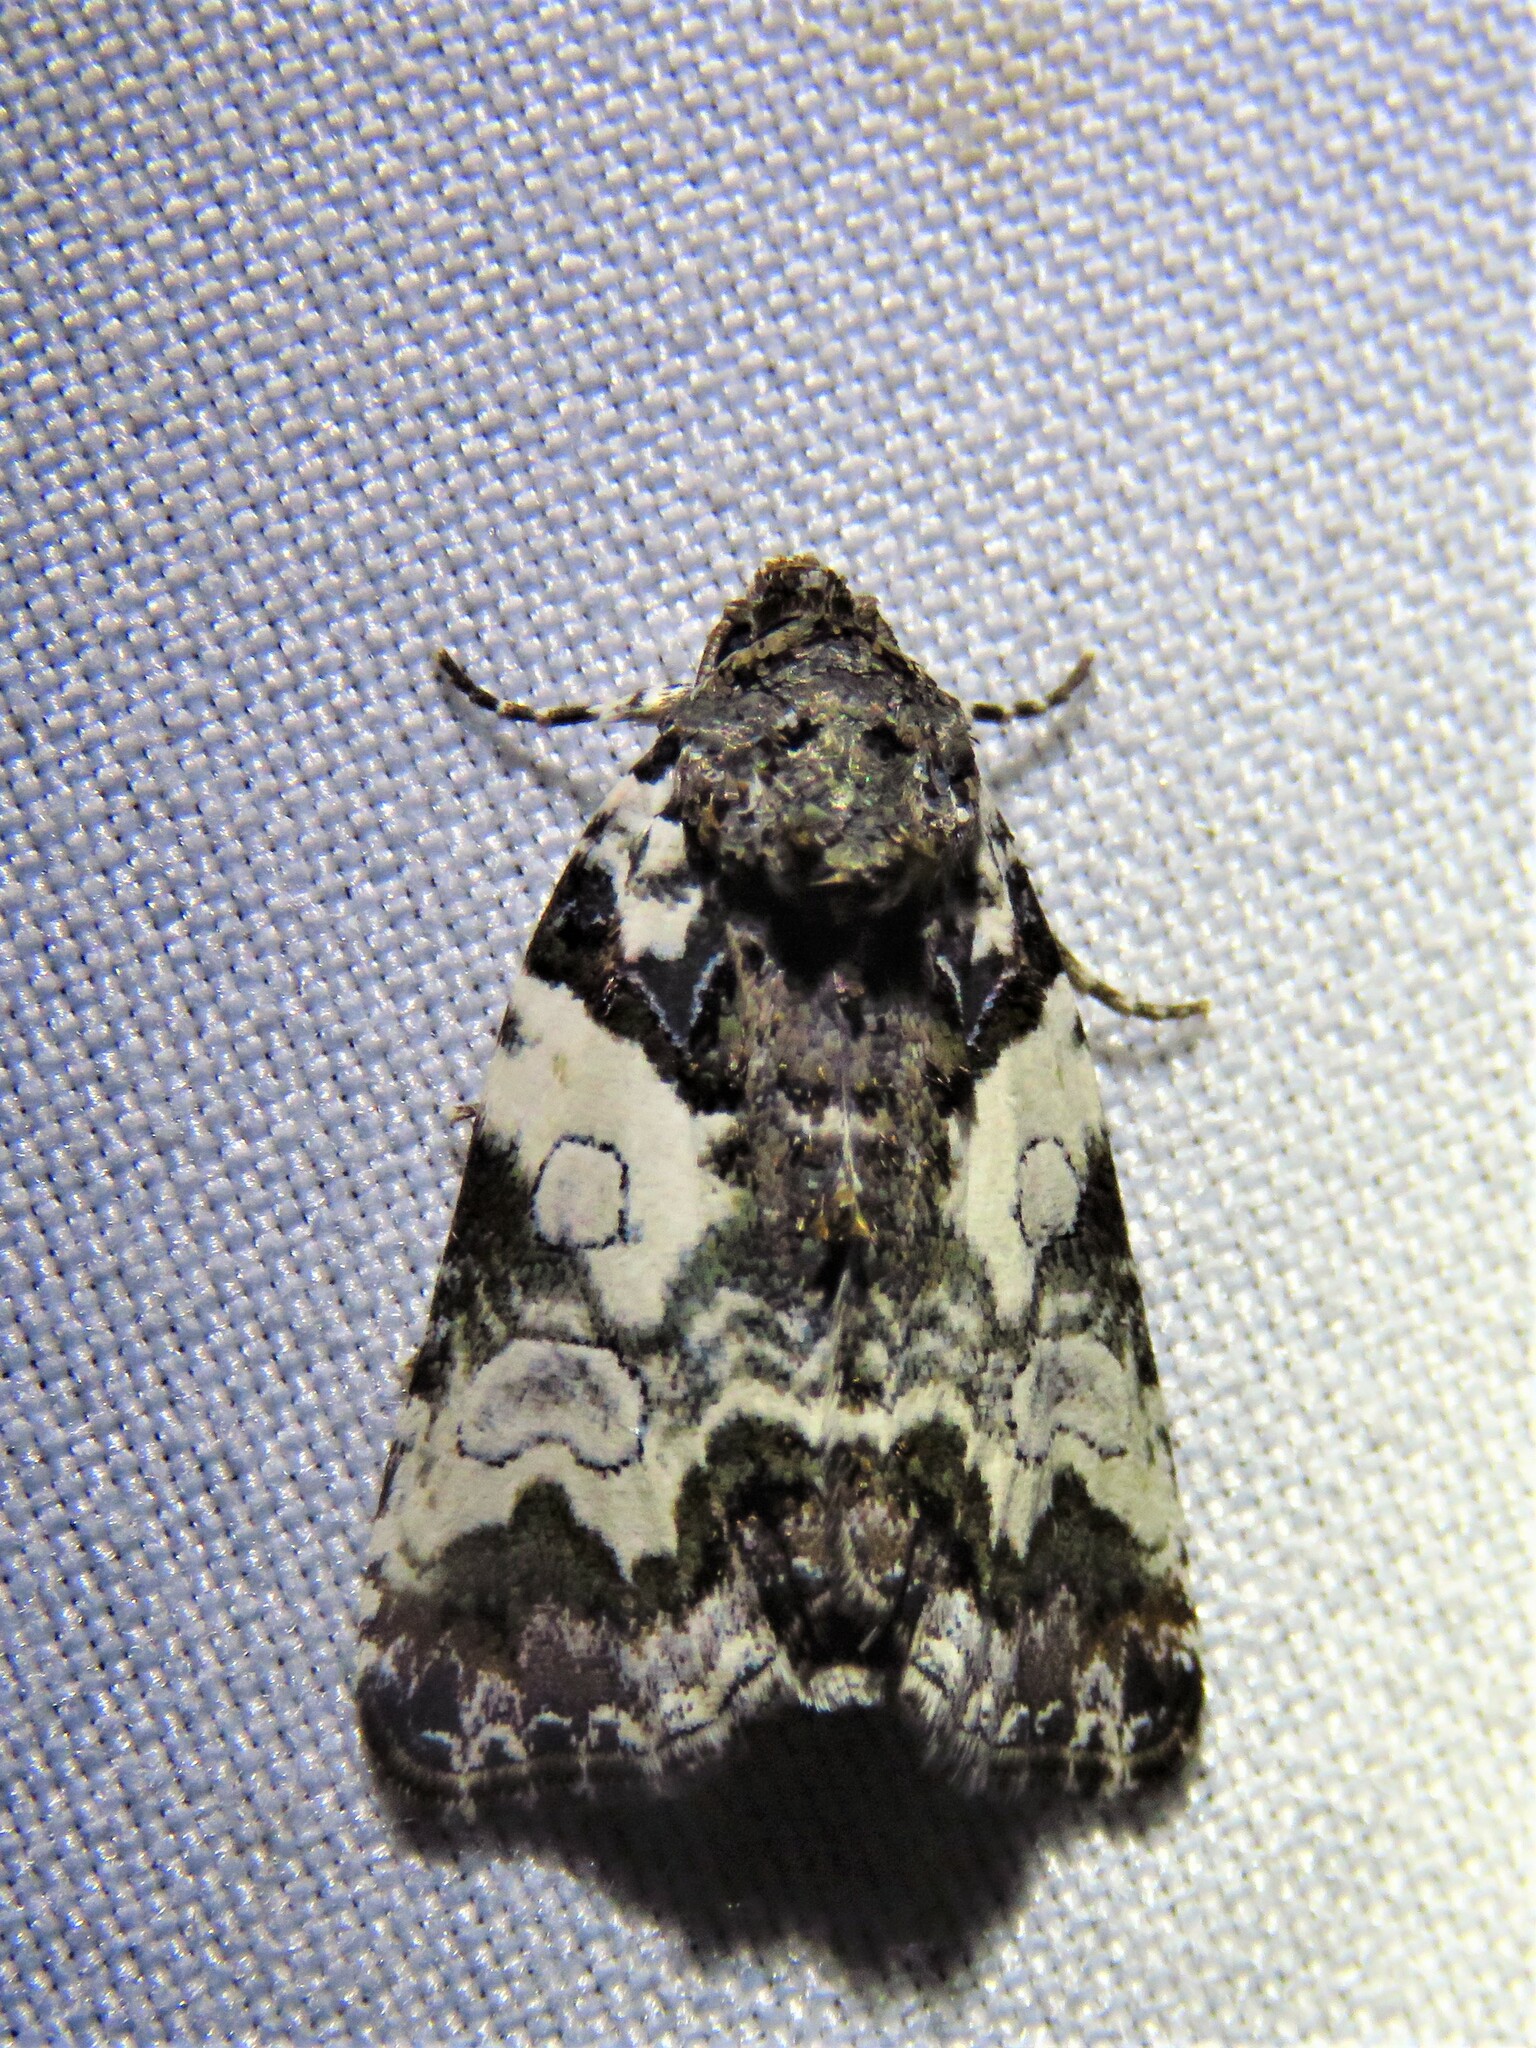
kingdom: Animalia
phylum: Arthropoda
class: Insecta
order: Lepidoptera
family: Noctuidae
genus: Cerma
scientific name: Cerma cerintha
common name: Tufted bird-dropping moth
